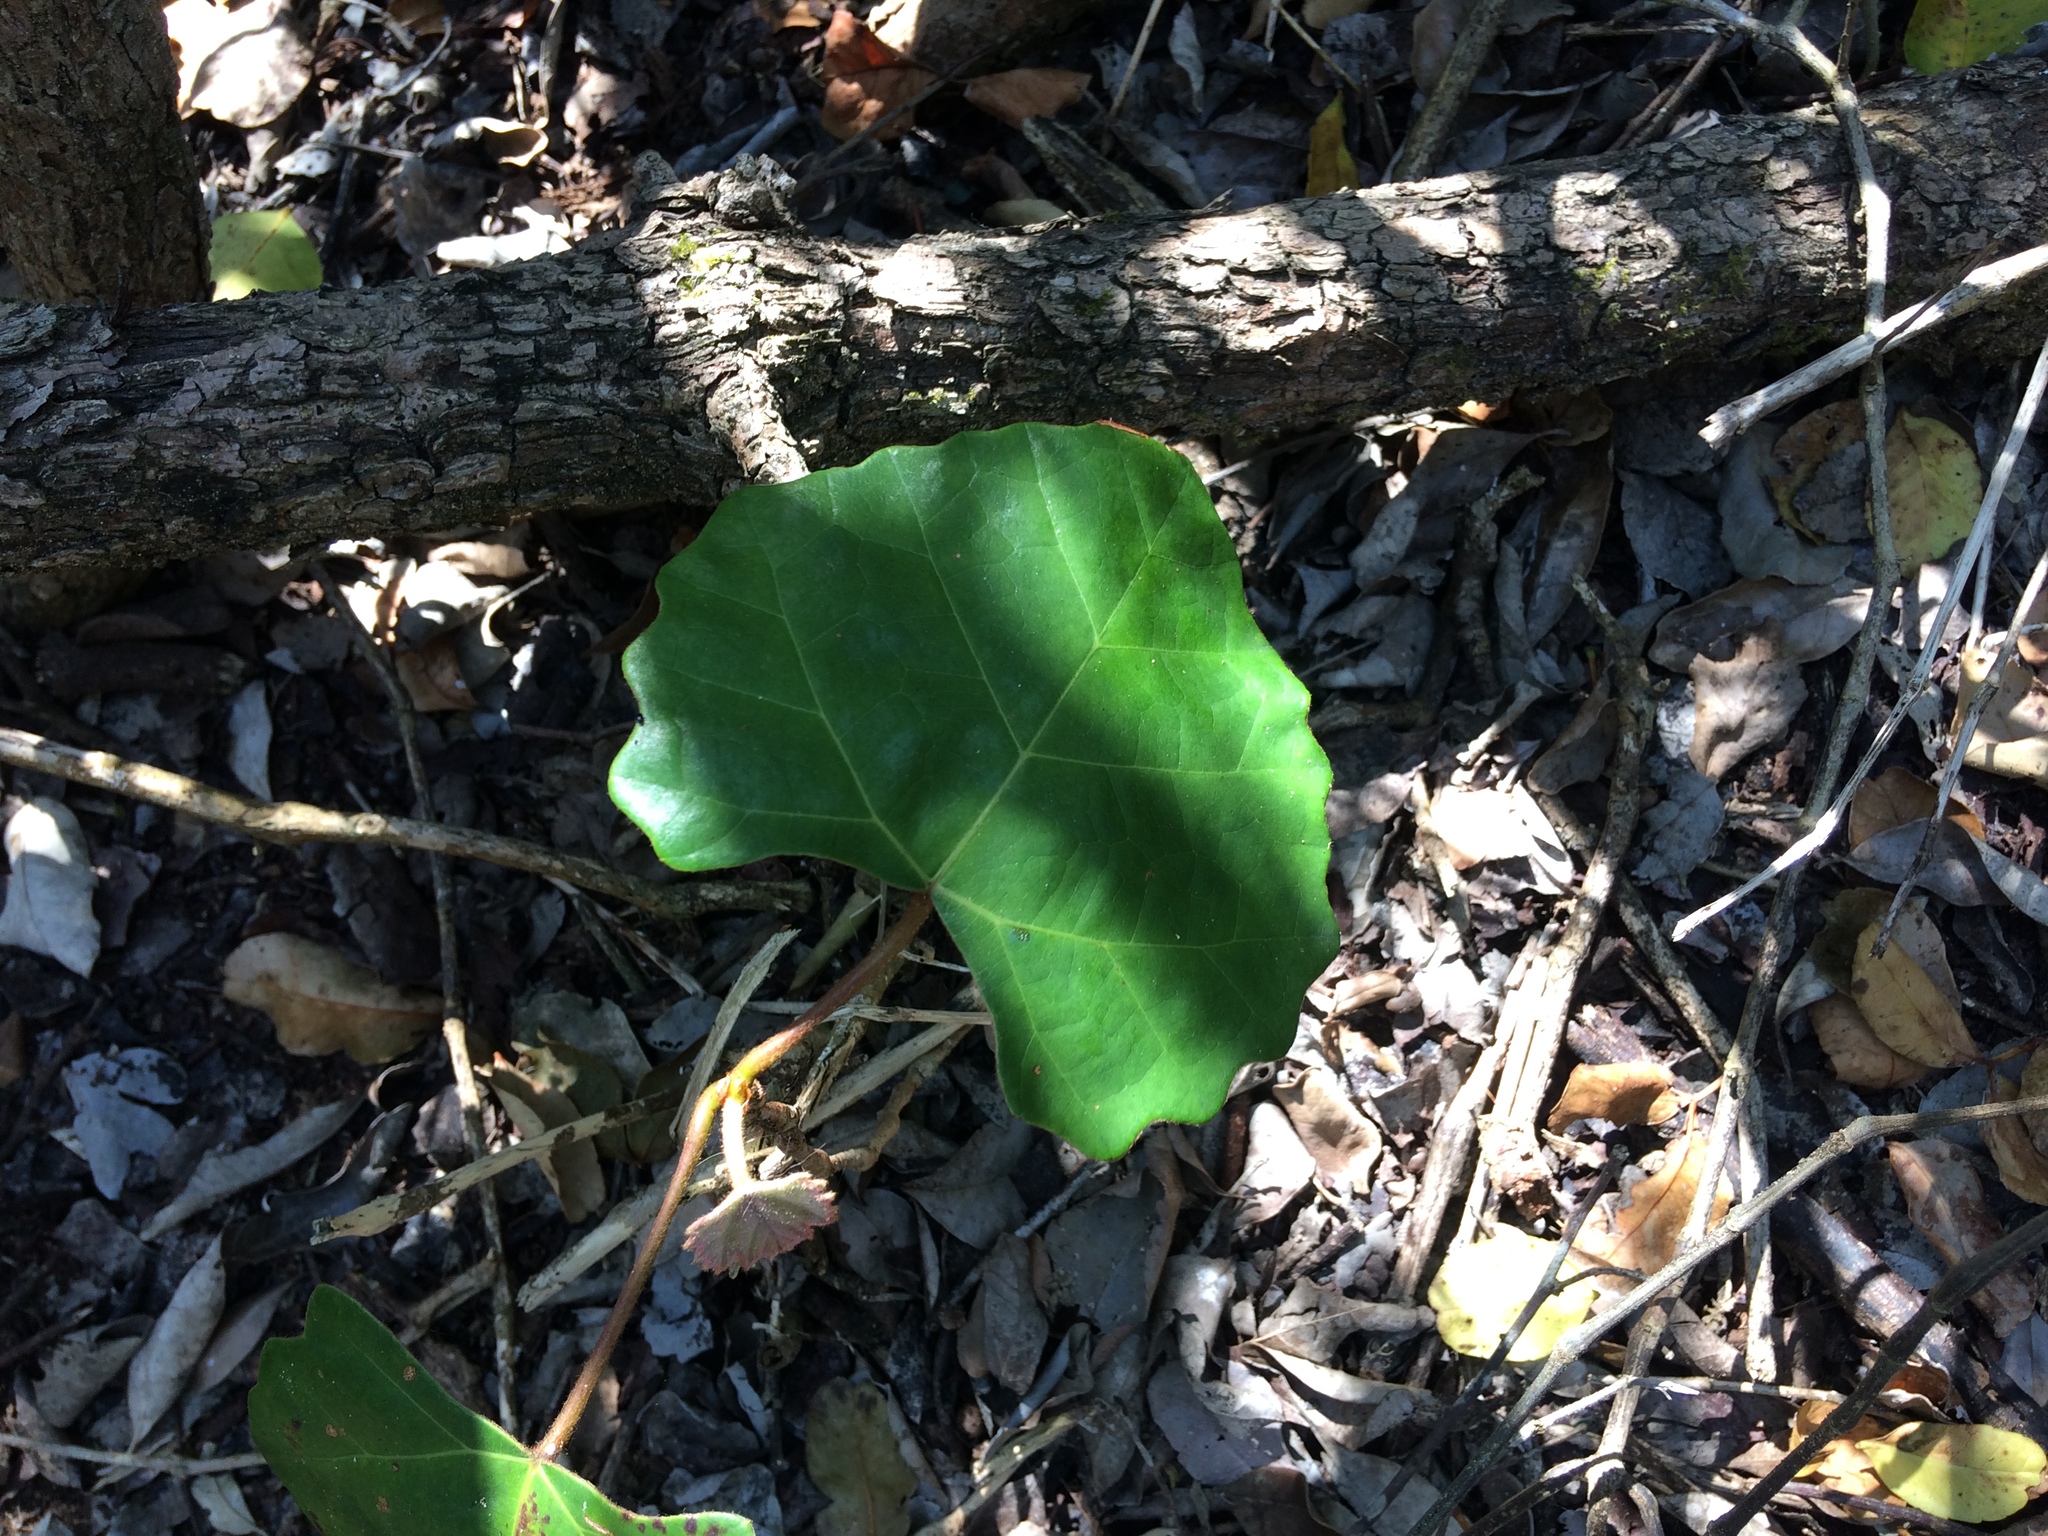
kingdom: Plantae
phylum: Tracheophyta
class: Magnoliopsida
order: Vitales
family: Vitaceae
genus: Rhoicissus
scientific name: Rhoicissus tomentosa
